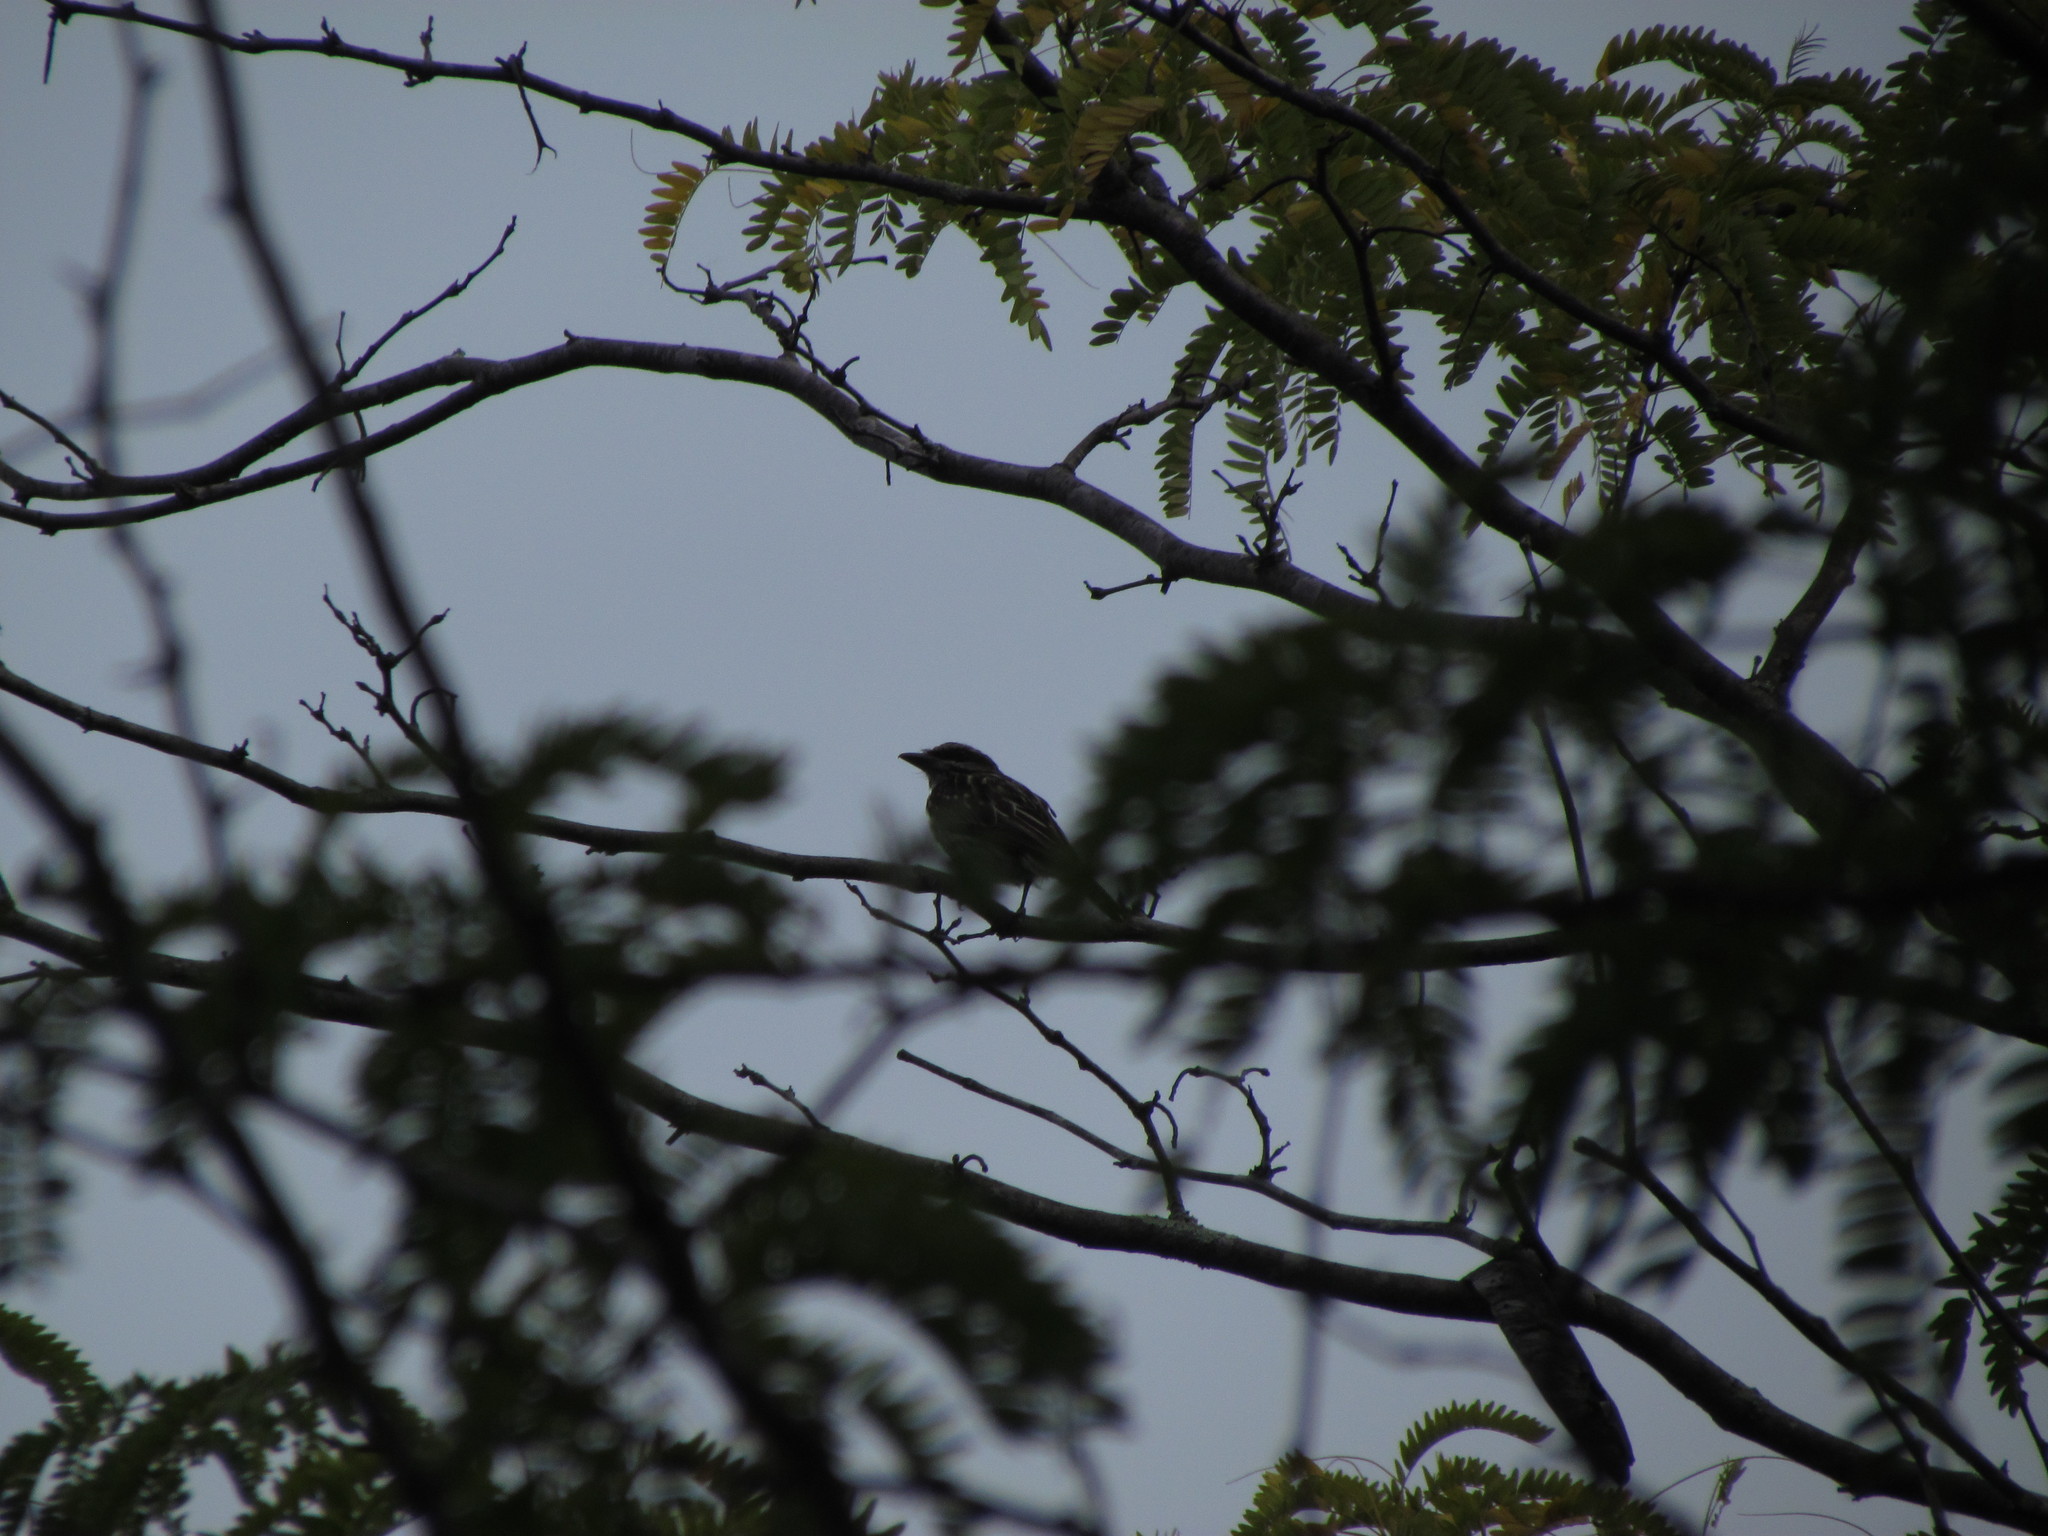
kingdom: Animalia
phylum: Chordata
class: Aves
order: Passeriformes
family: Tyrannidae
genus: Myiodynastes
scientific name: Myiodynastes maculatus
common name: Streaked flycatcher
